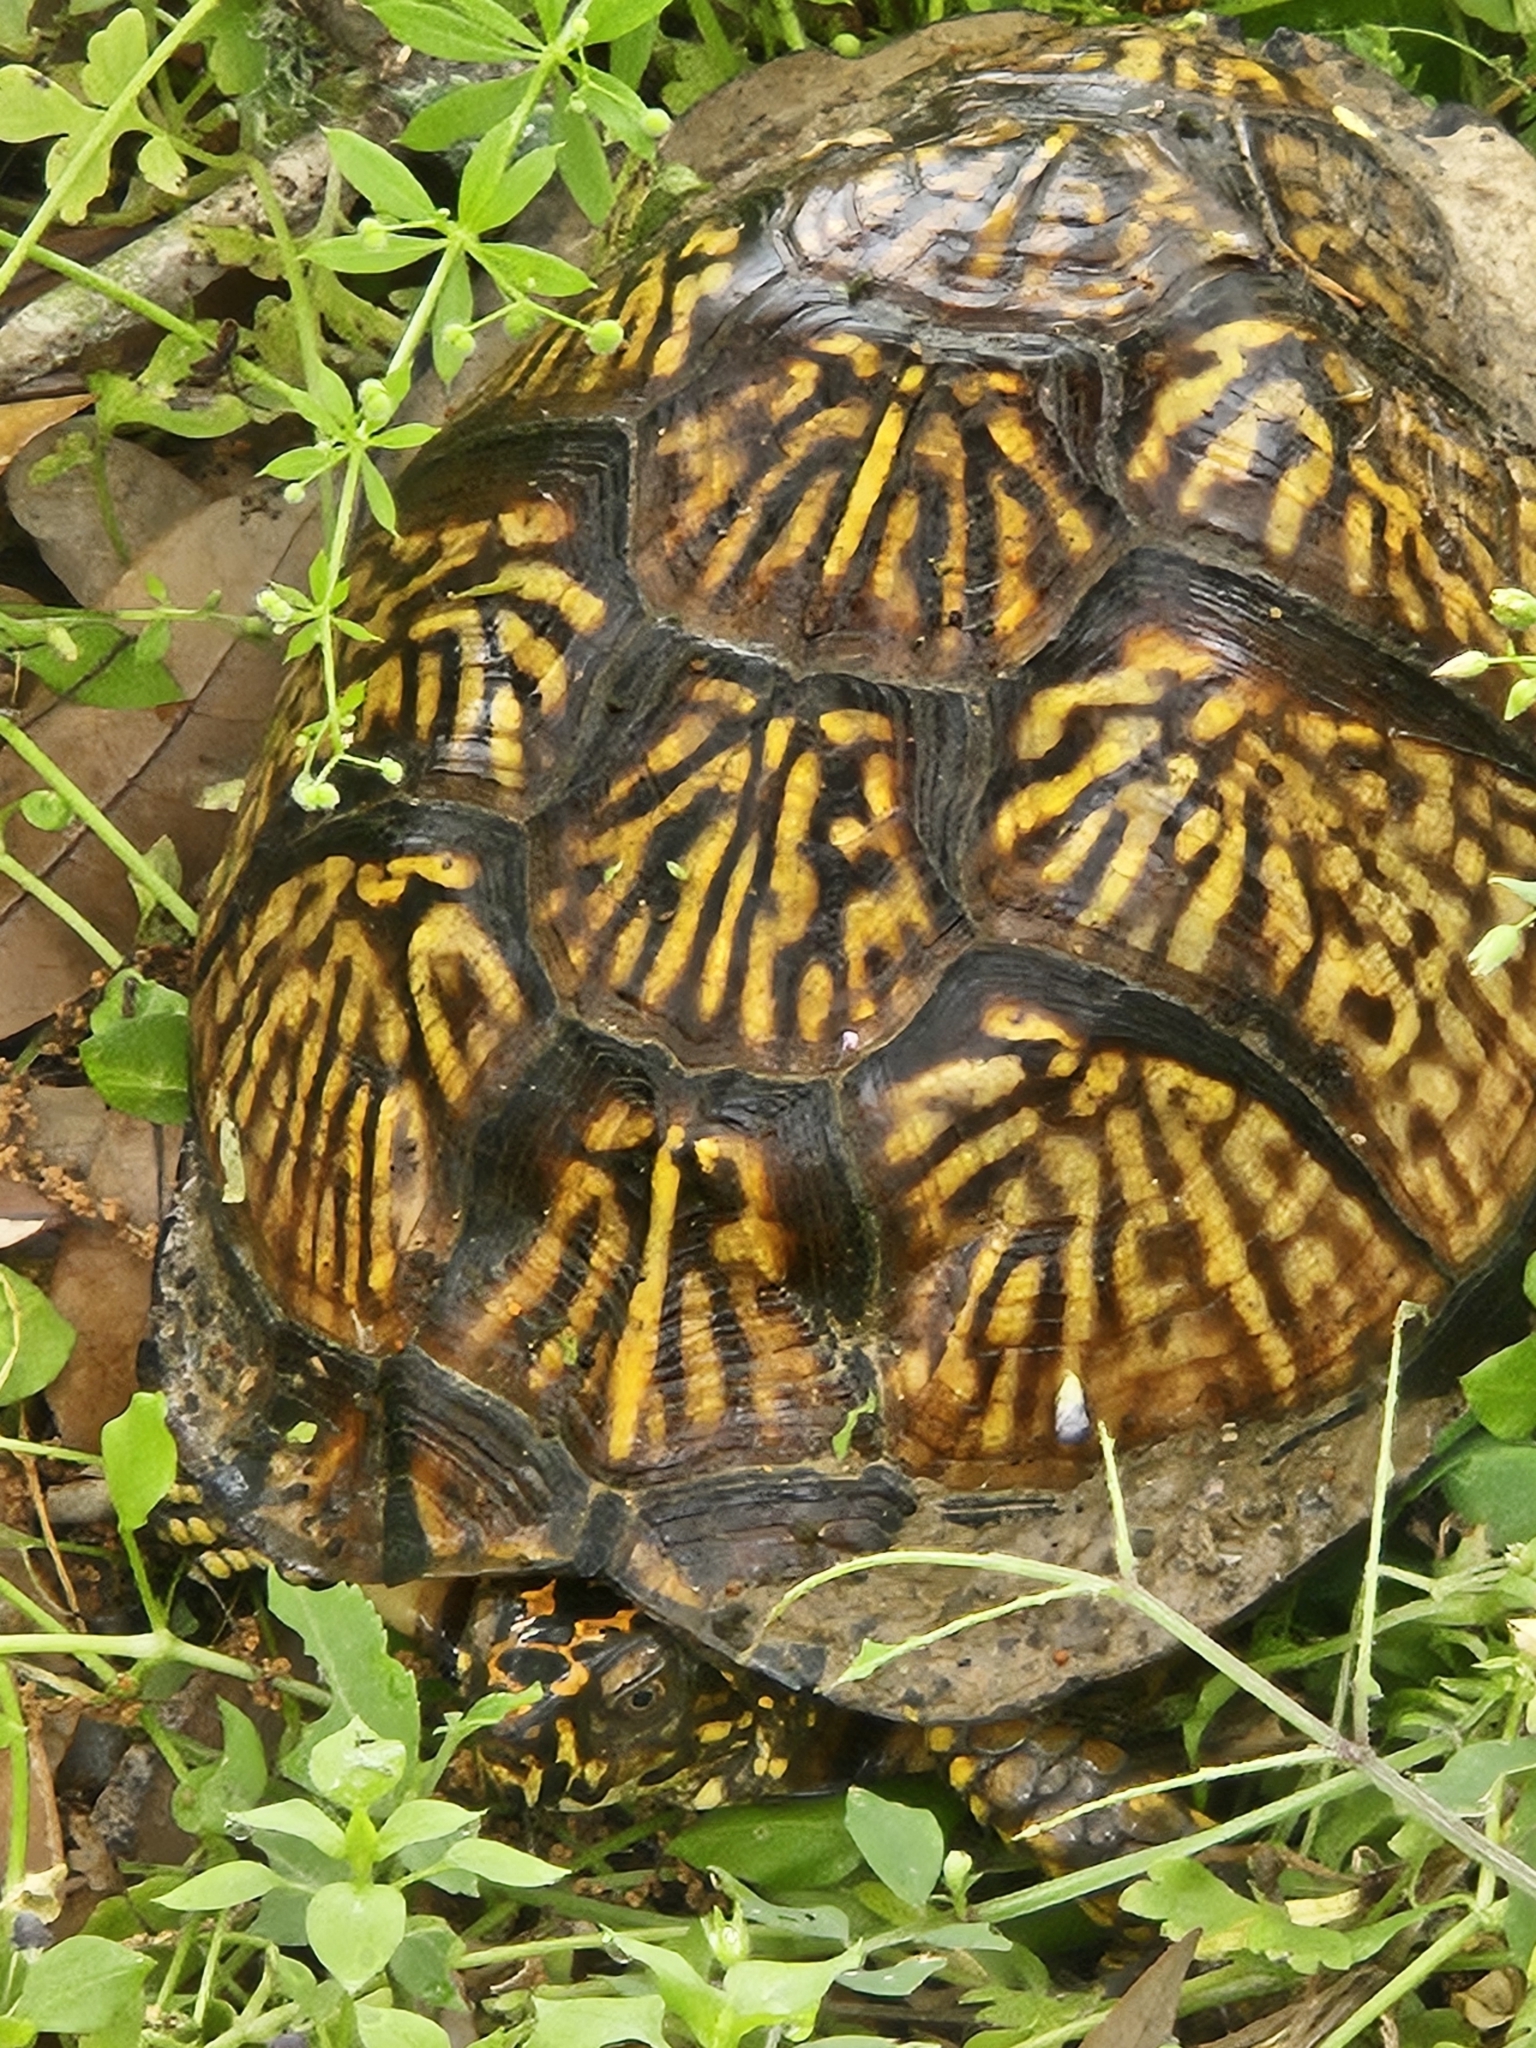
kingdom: Animalia
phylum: Chordata
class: Testudines
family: Emydidae
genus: Terrapene
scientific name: Terrapene carolina
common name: Common box turtle
